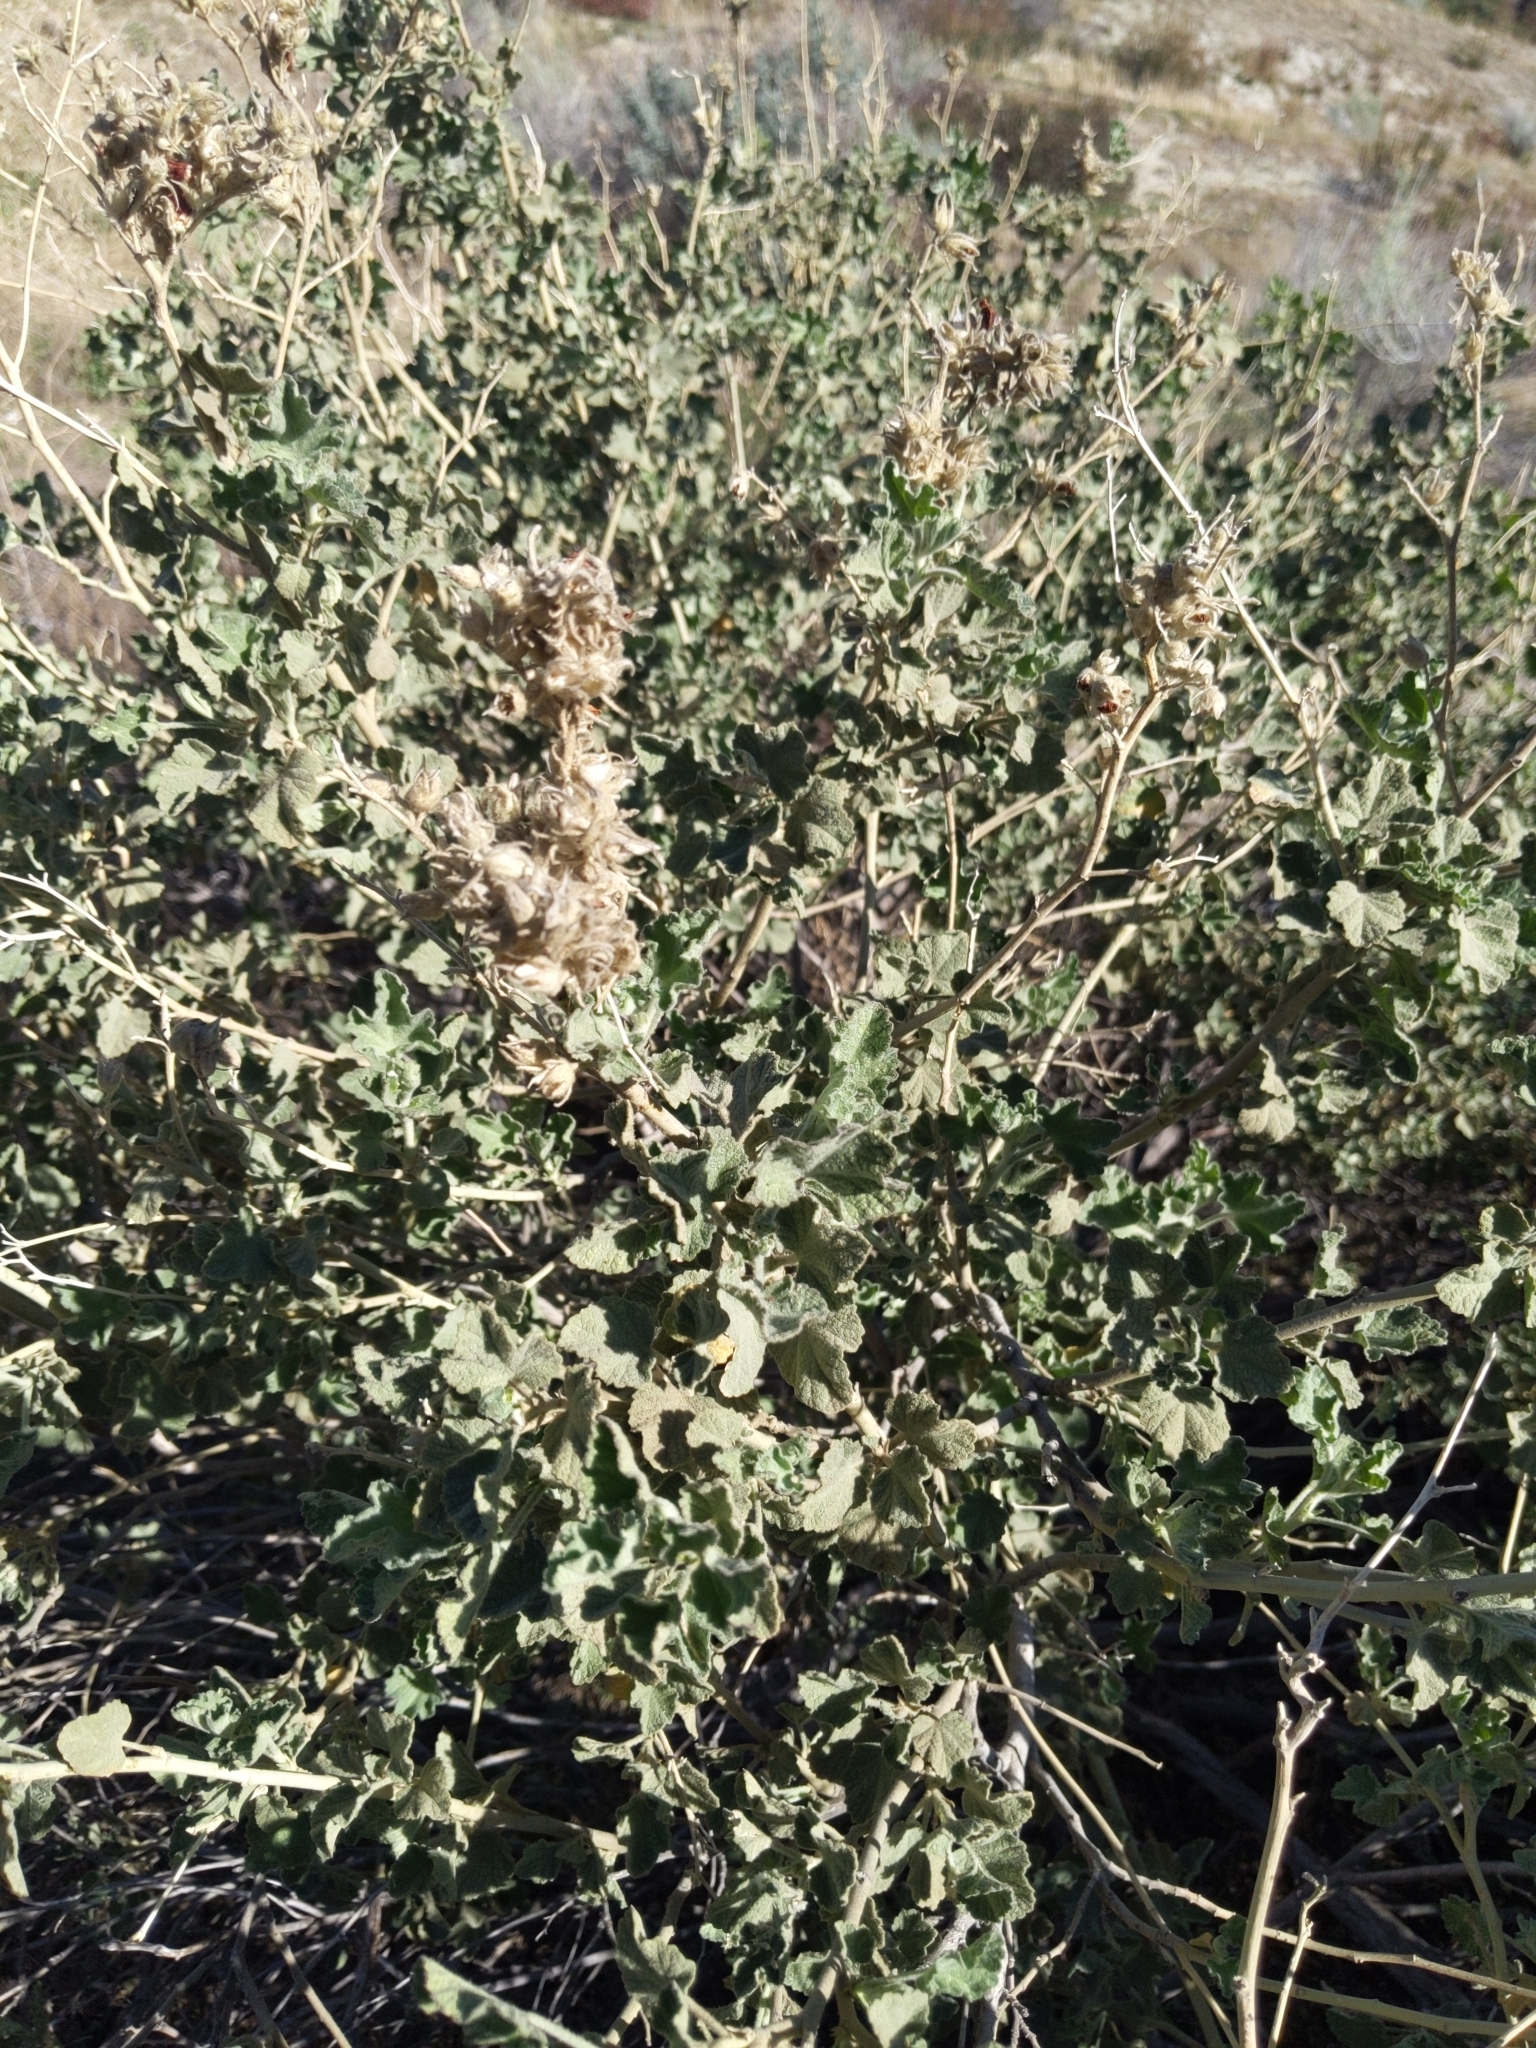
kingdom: Plantae
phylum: Tracheophyta
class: Magnoliopsida
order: Malvales
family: Malvaceae
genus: Malacothamnus
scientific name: Malacothamnus marrubioides
